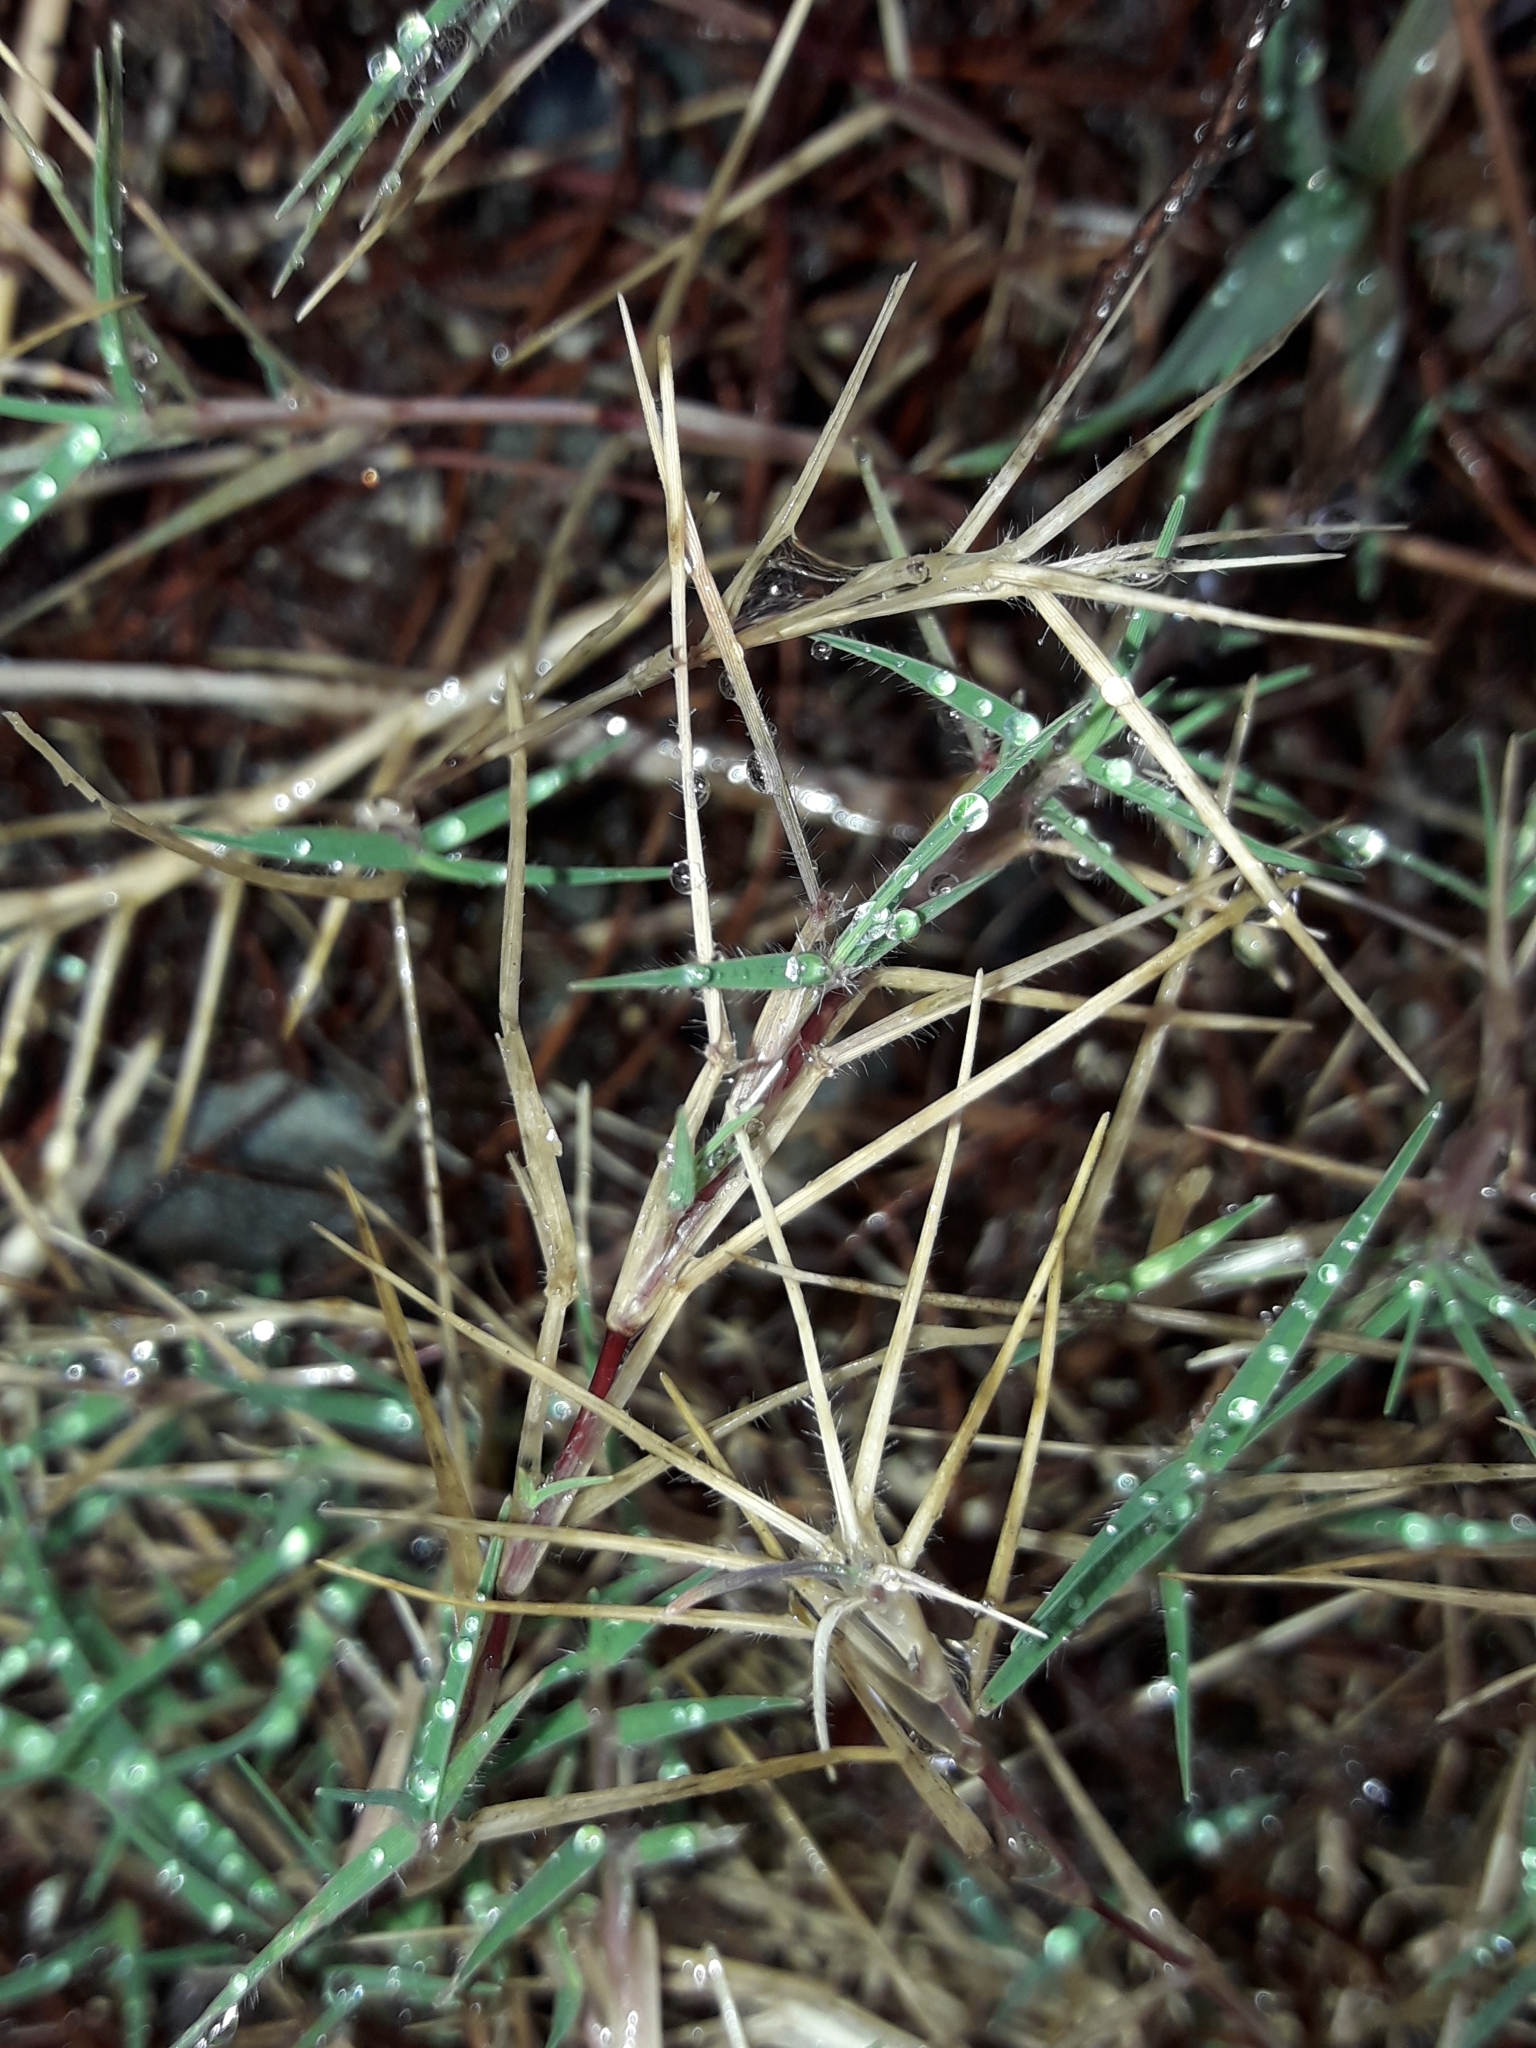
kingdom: Plantae
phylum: Tracheophyta
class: Liliopsida
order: Poales
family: Poaceae
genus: Cynodon
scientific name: Cynodon dactylon
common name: Bermuda grass
